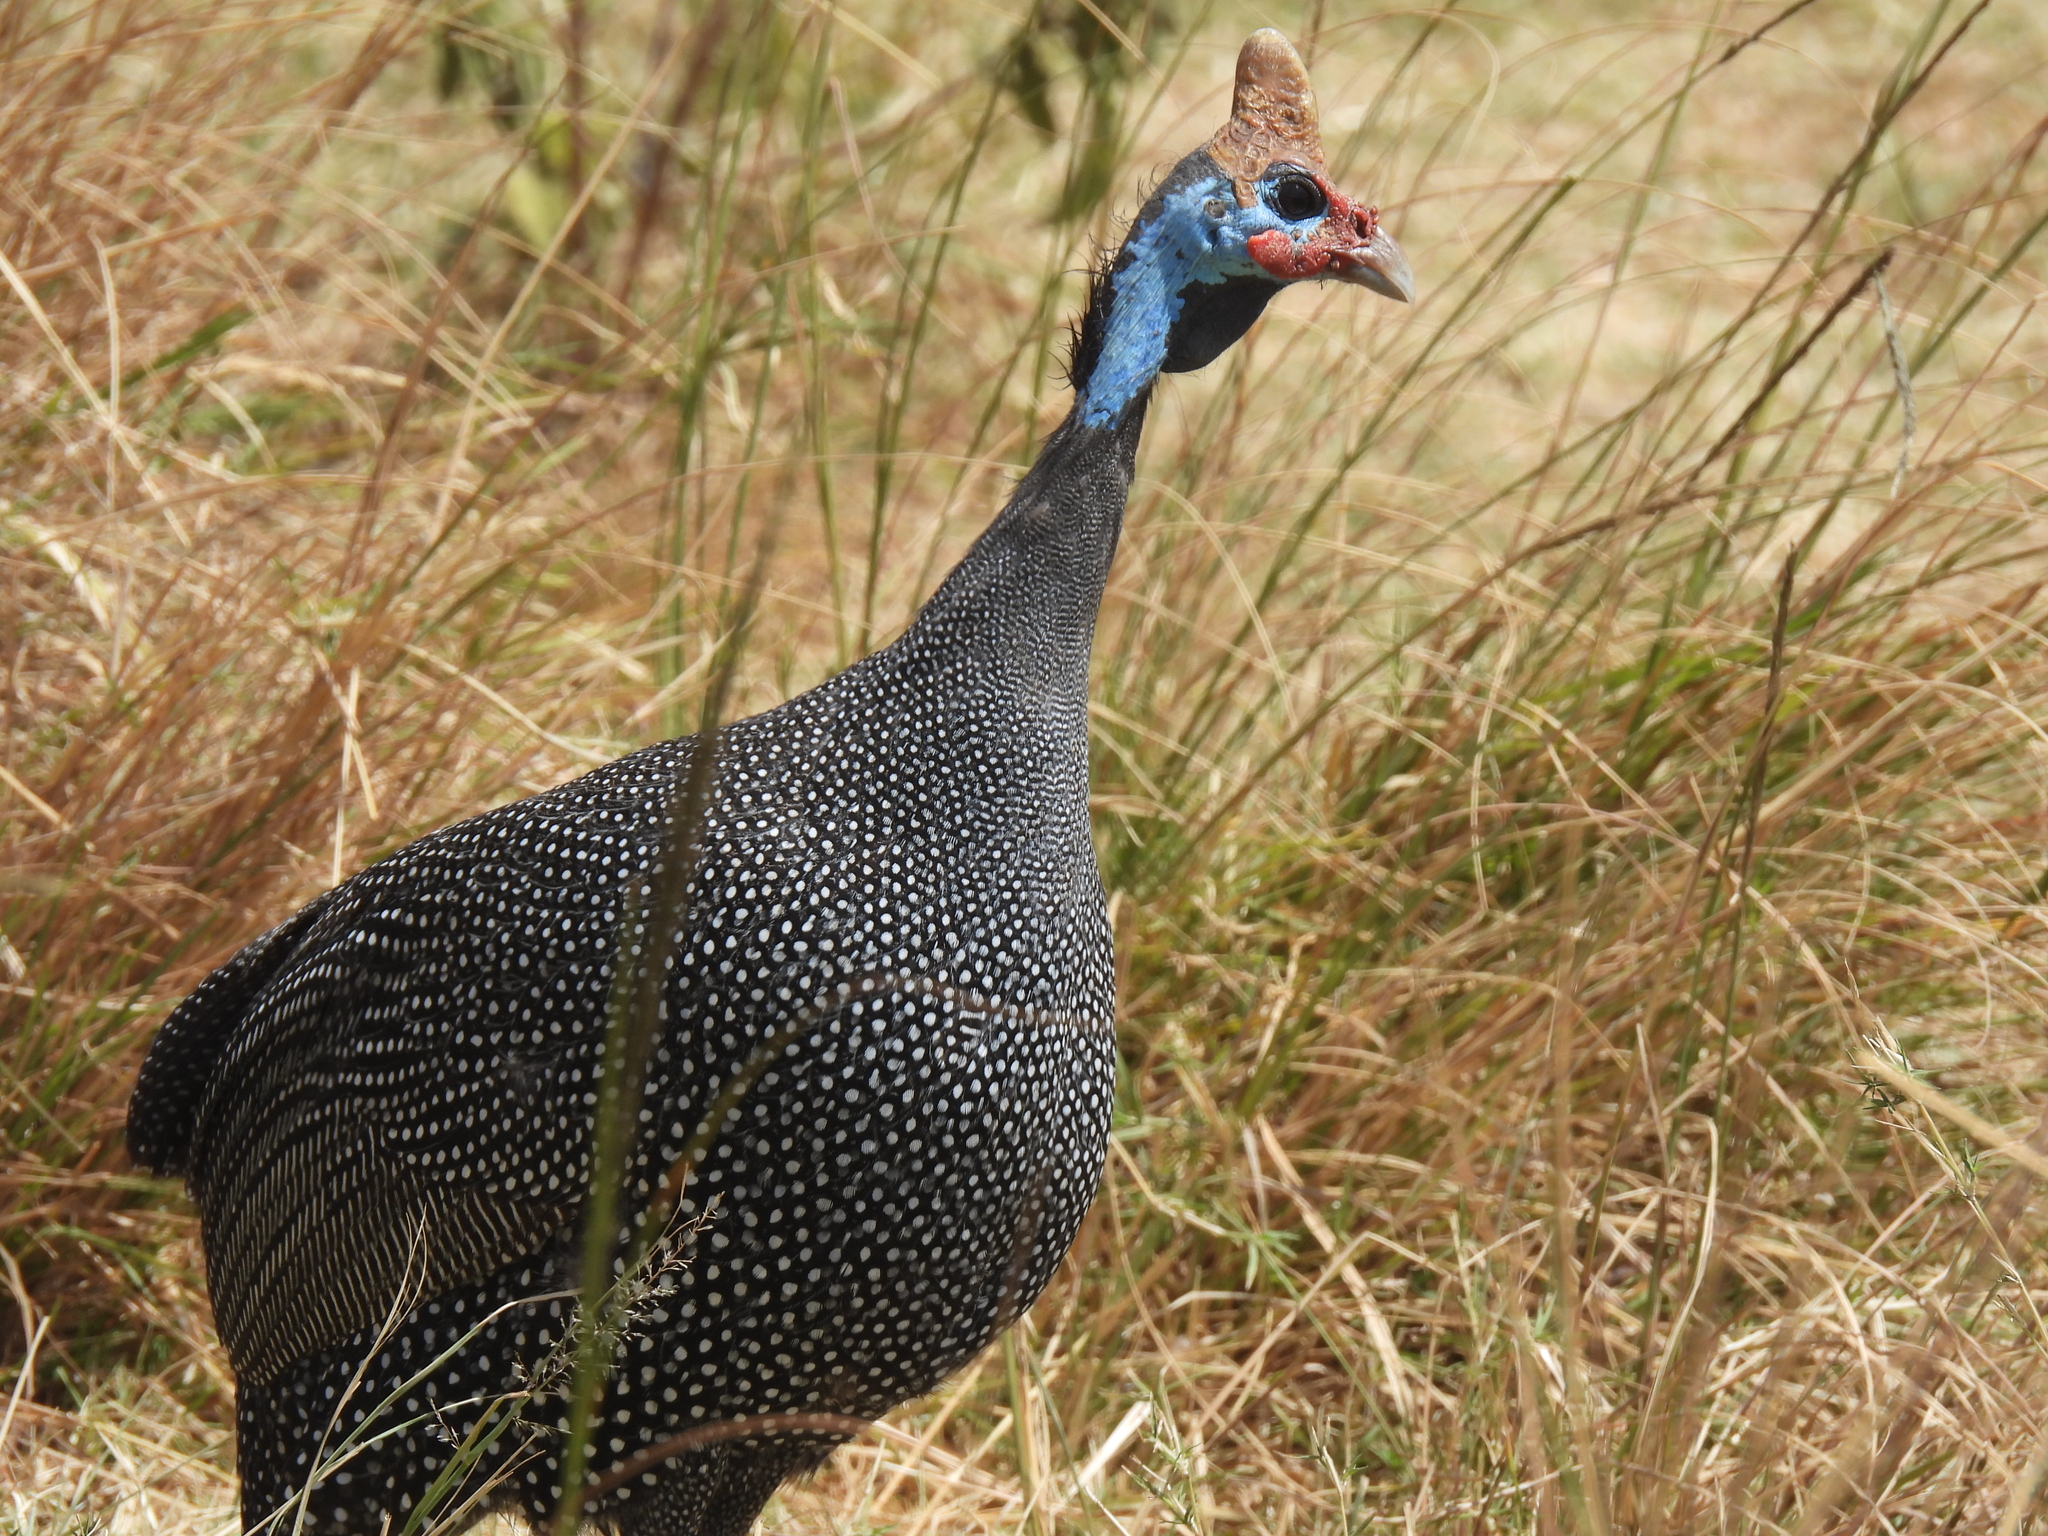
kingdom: Animalia
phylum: Chordata
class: Aves
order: Galliformes
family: Numididae
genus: Numida
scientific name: Numida meleagris
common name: Helmeted guineafowl
